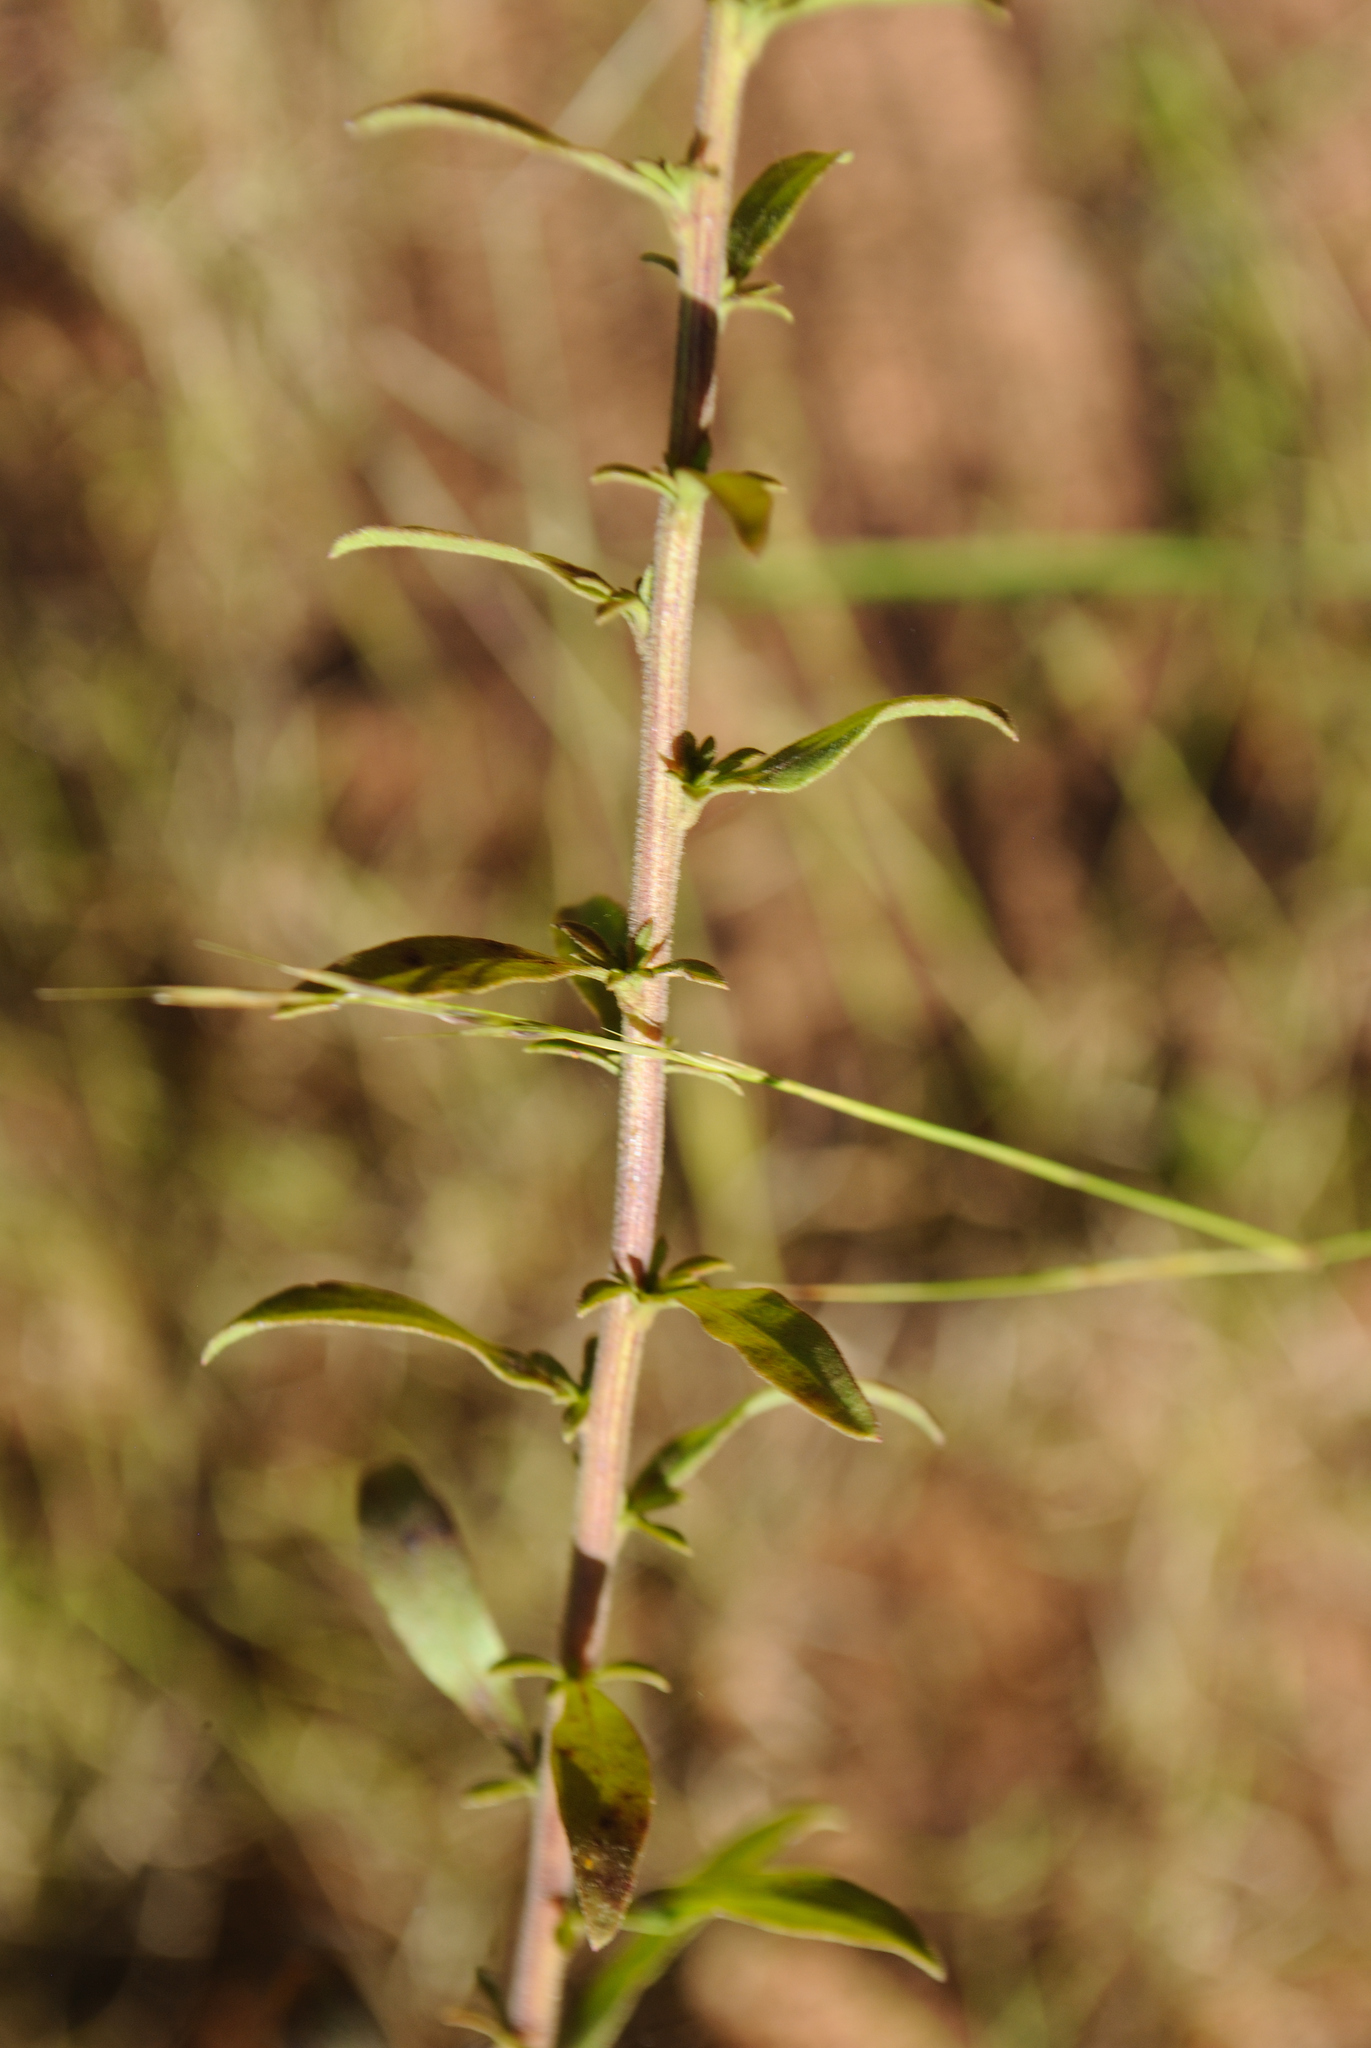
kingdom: Plantae
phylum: Tracheophyta
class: Magnoliopsida
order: Asterales
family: Asteraceae
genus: Solidago
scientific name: Solidago nemoralis
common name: Grey goldenrod
